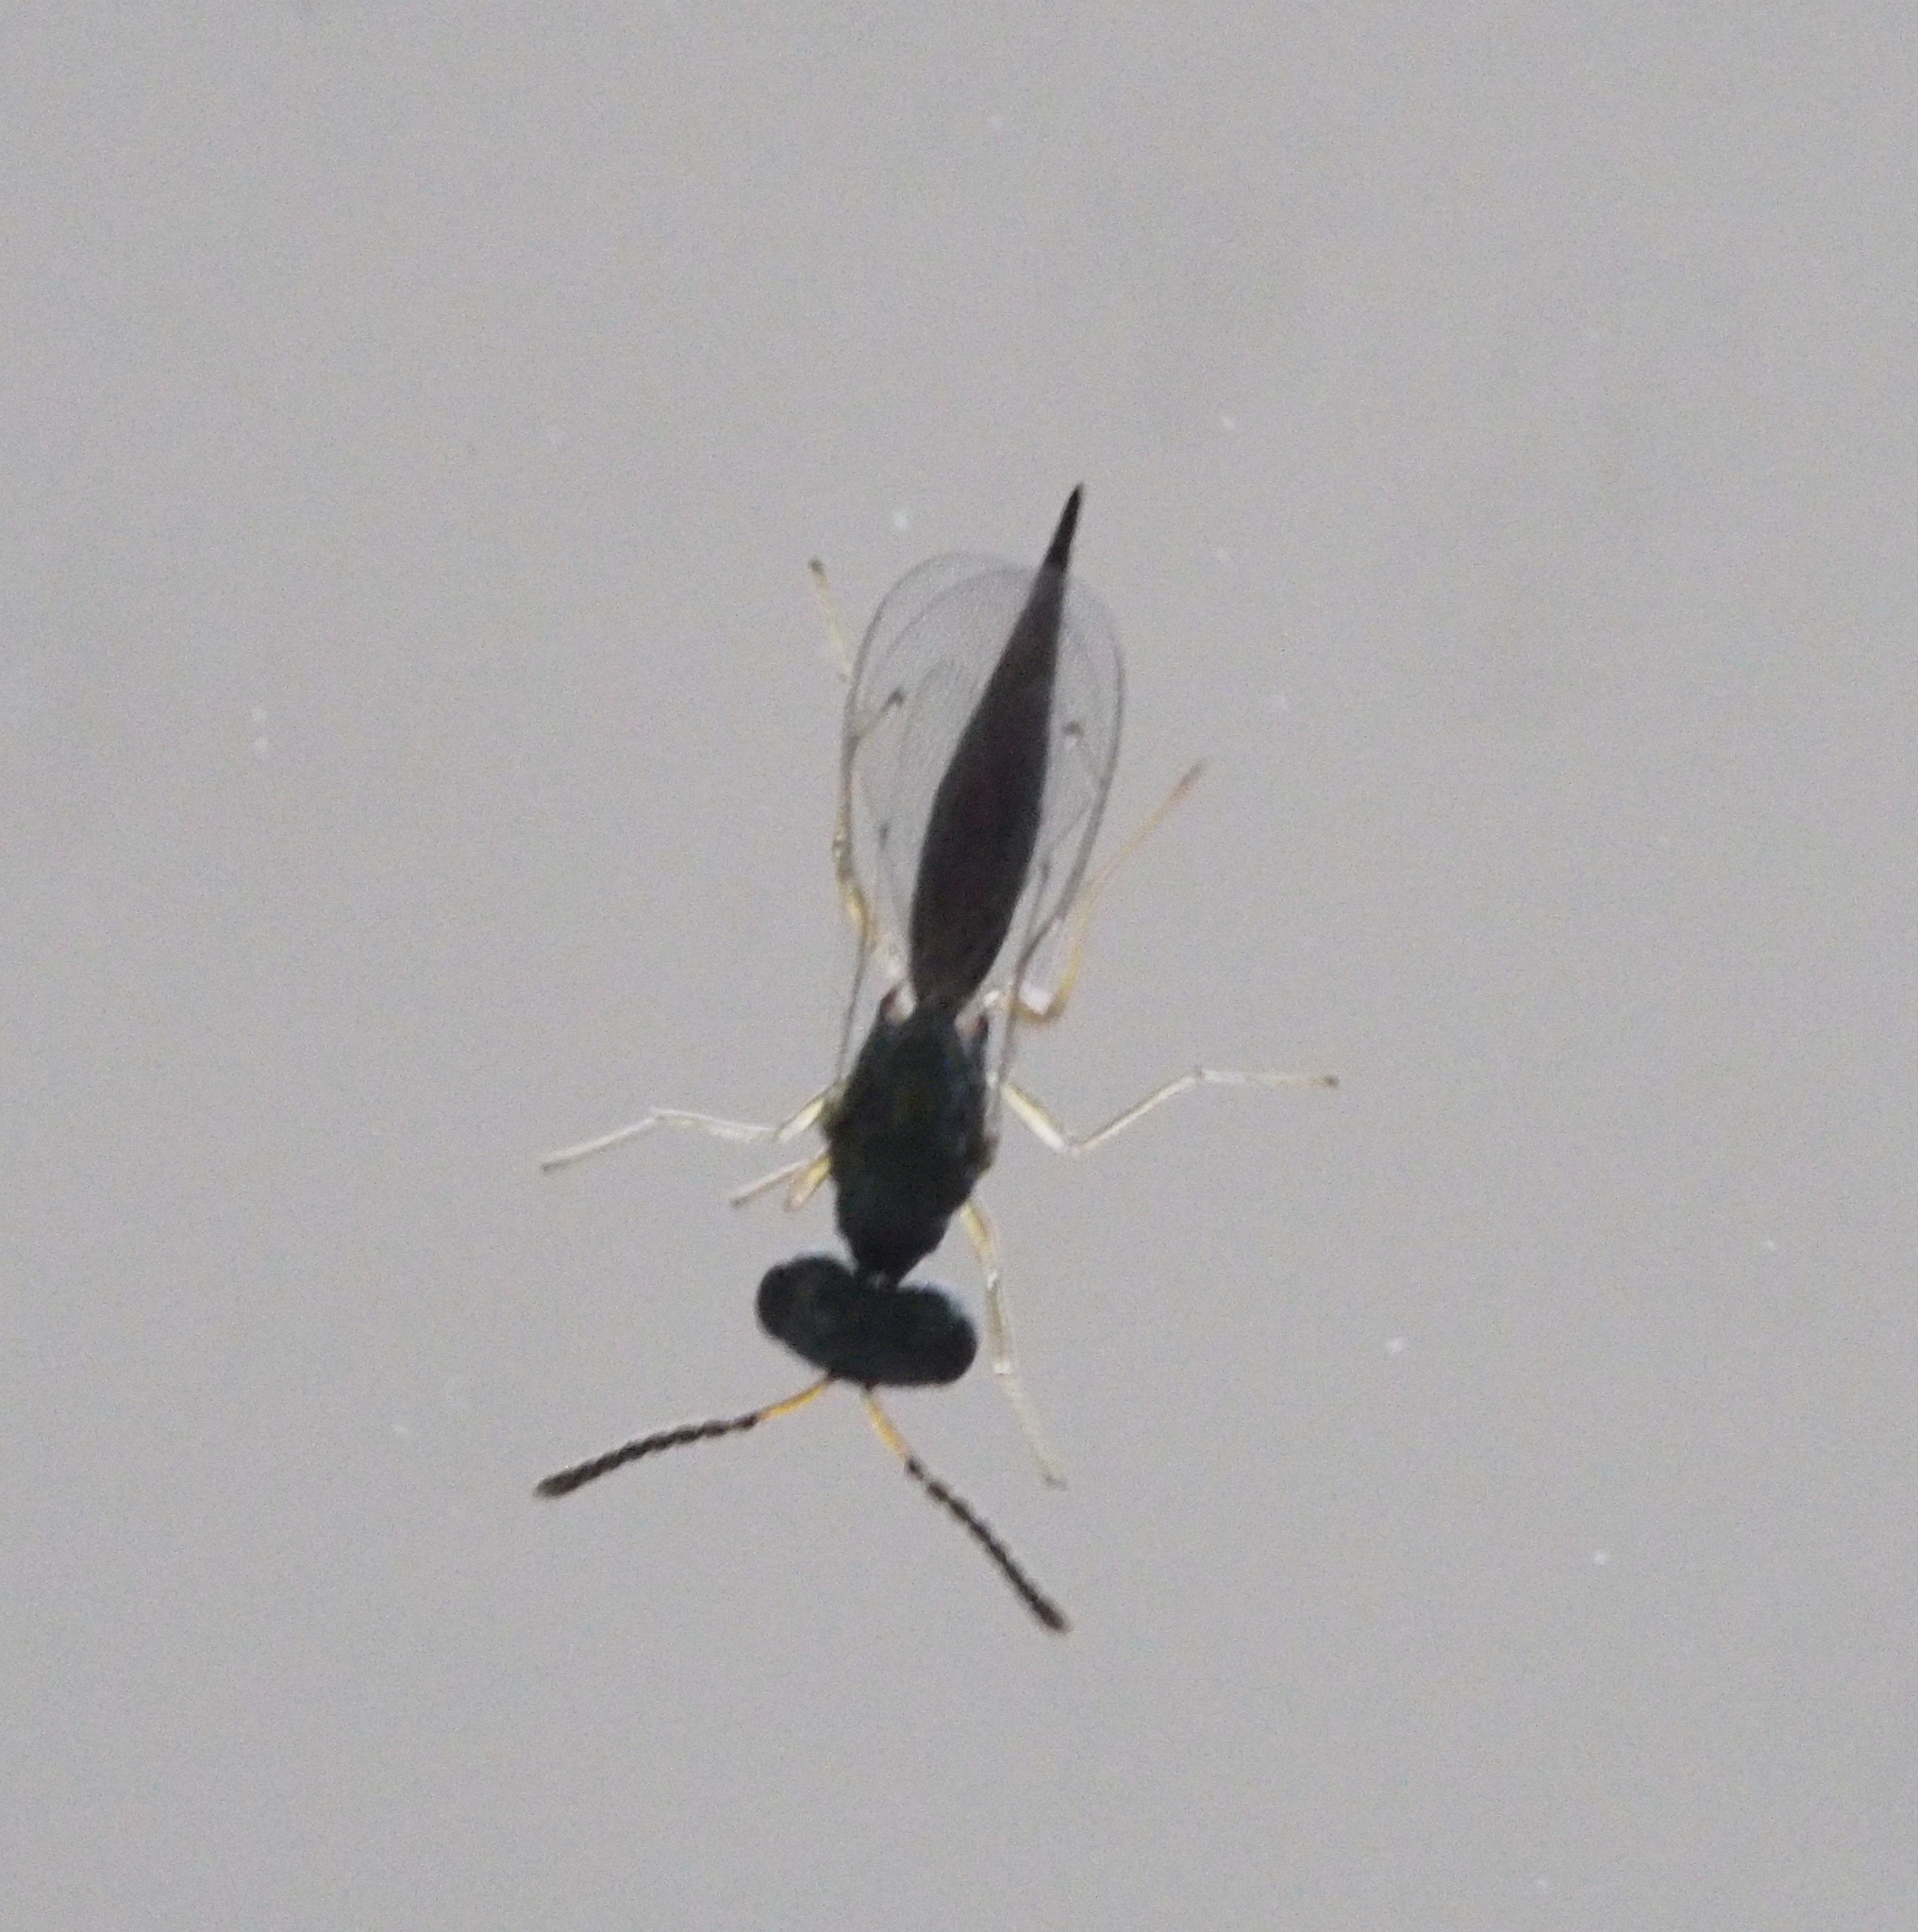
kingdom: Animalia
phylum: Arthropoda
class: Insecta
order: Hymenoptera
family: Pteromalidae
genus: Lonchetron
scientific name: Lonchetron fennicum
